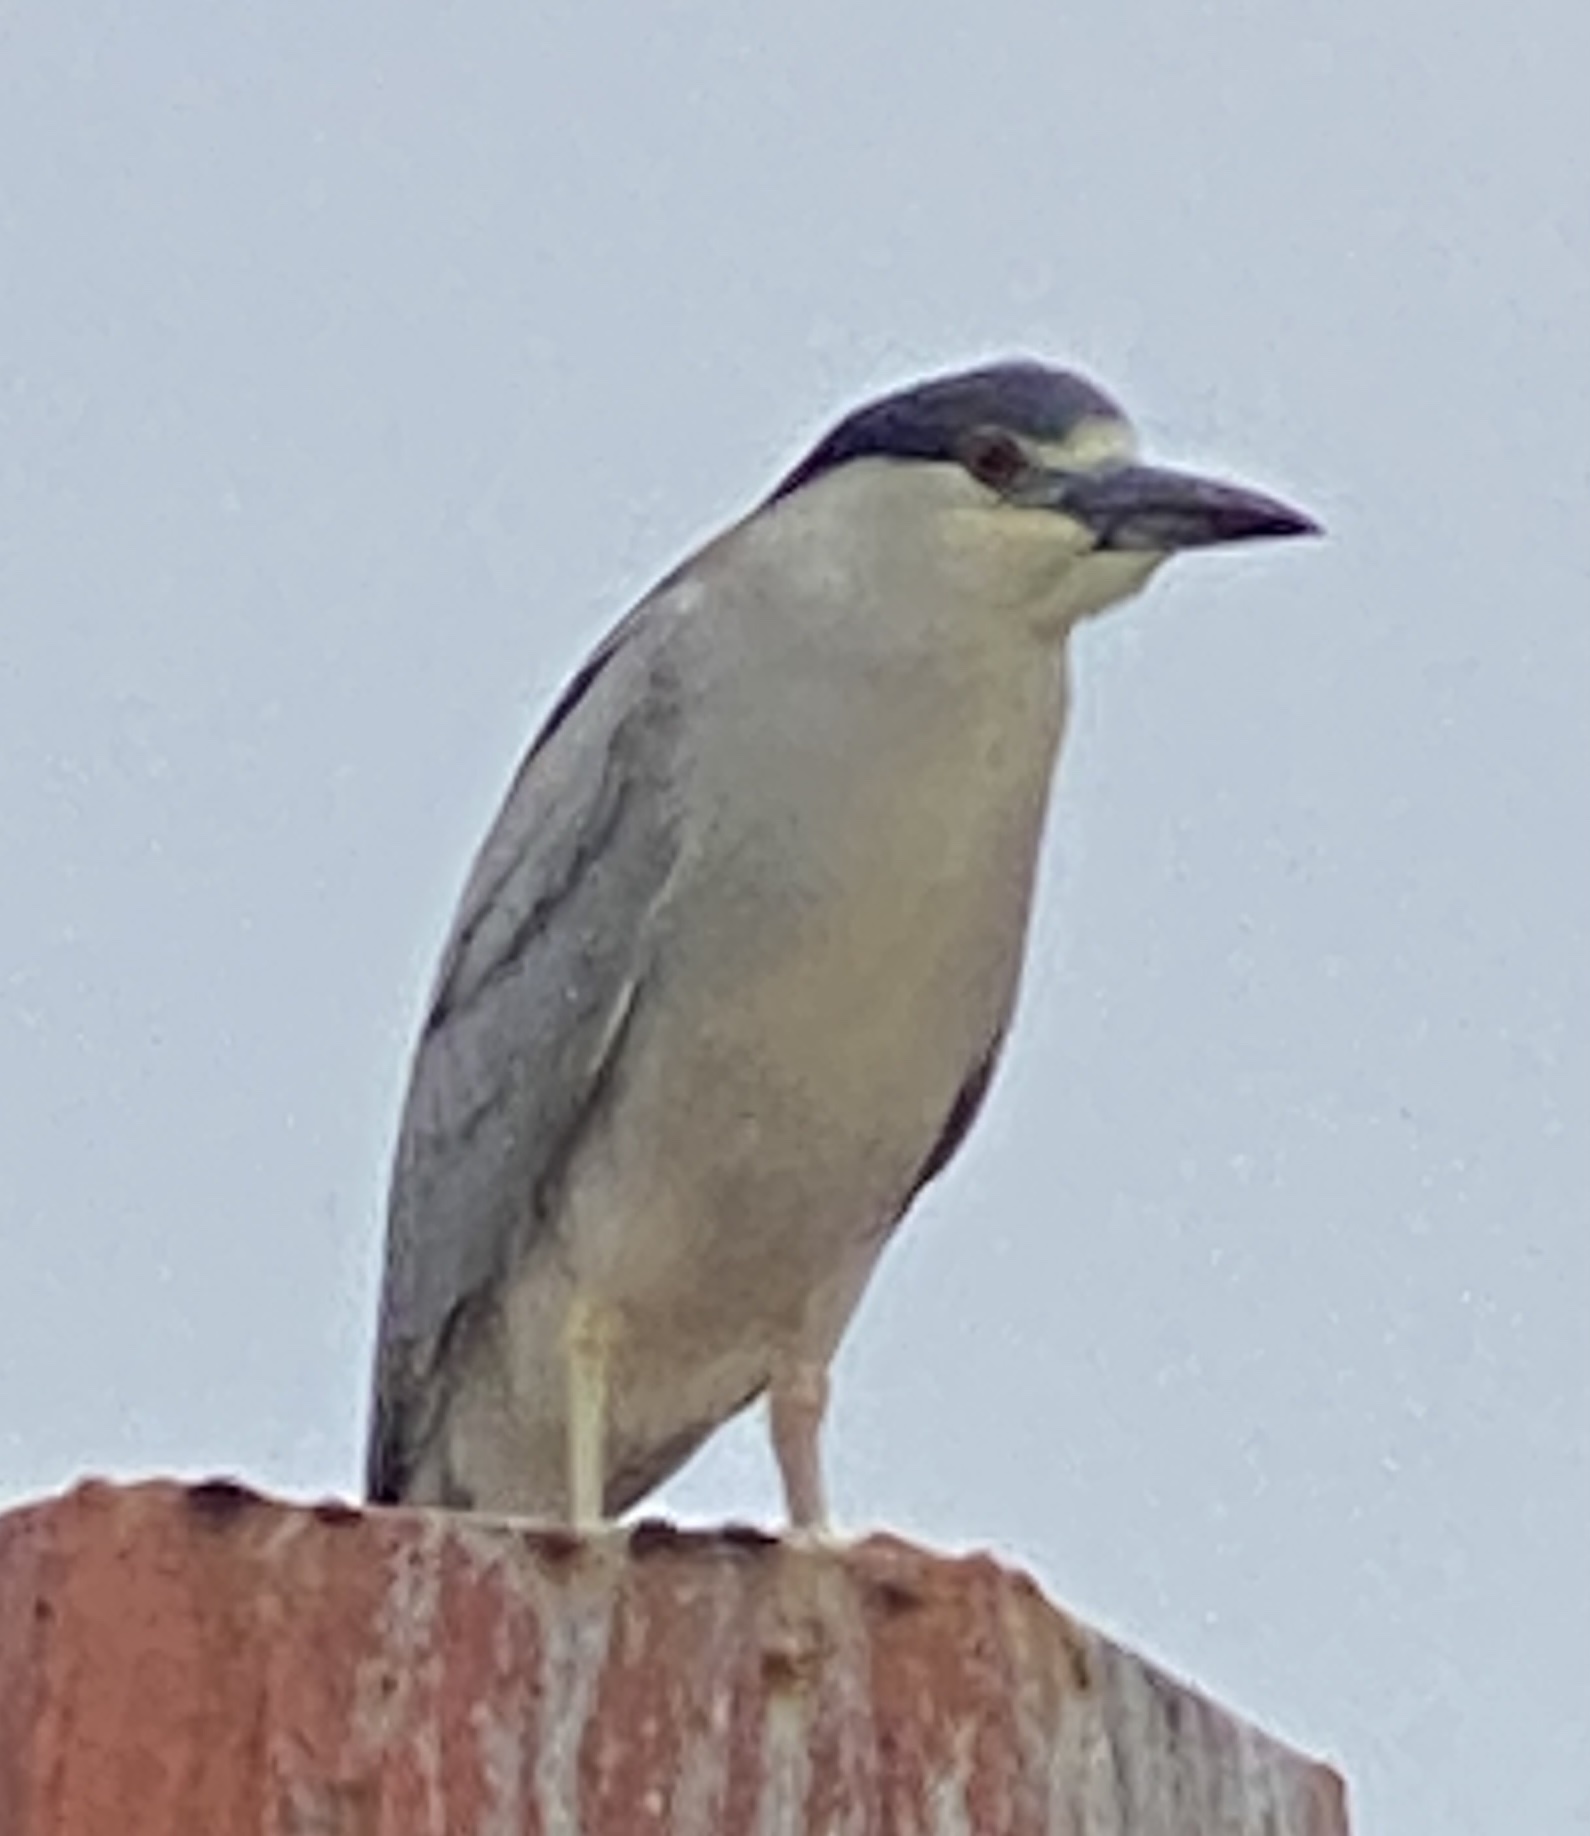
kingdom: Animalia
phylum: Chordata
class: Aves
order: Pelecaniformes
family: Ardeidae
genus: Nycticorax
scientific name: Nycticorax nycticorax
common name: Black-crowned night heron
